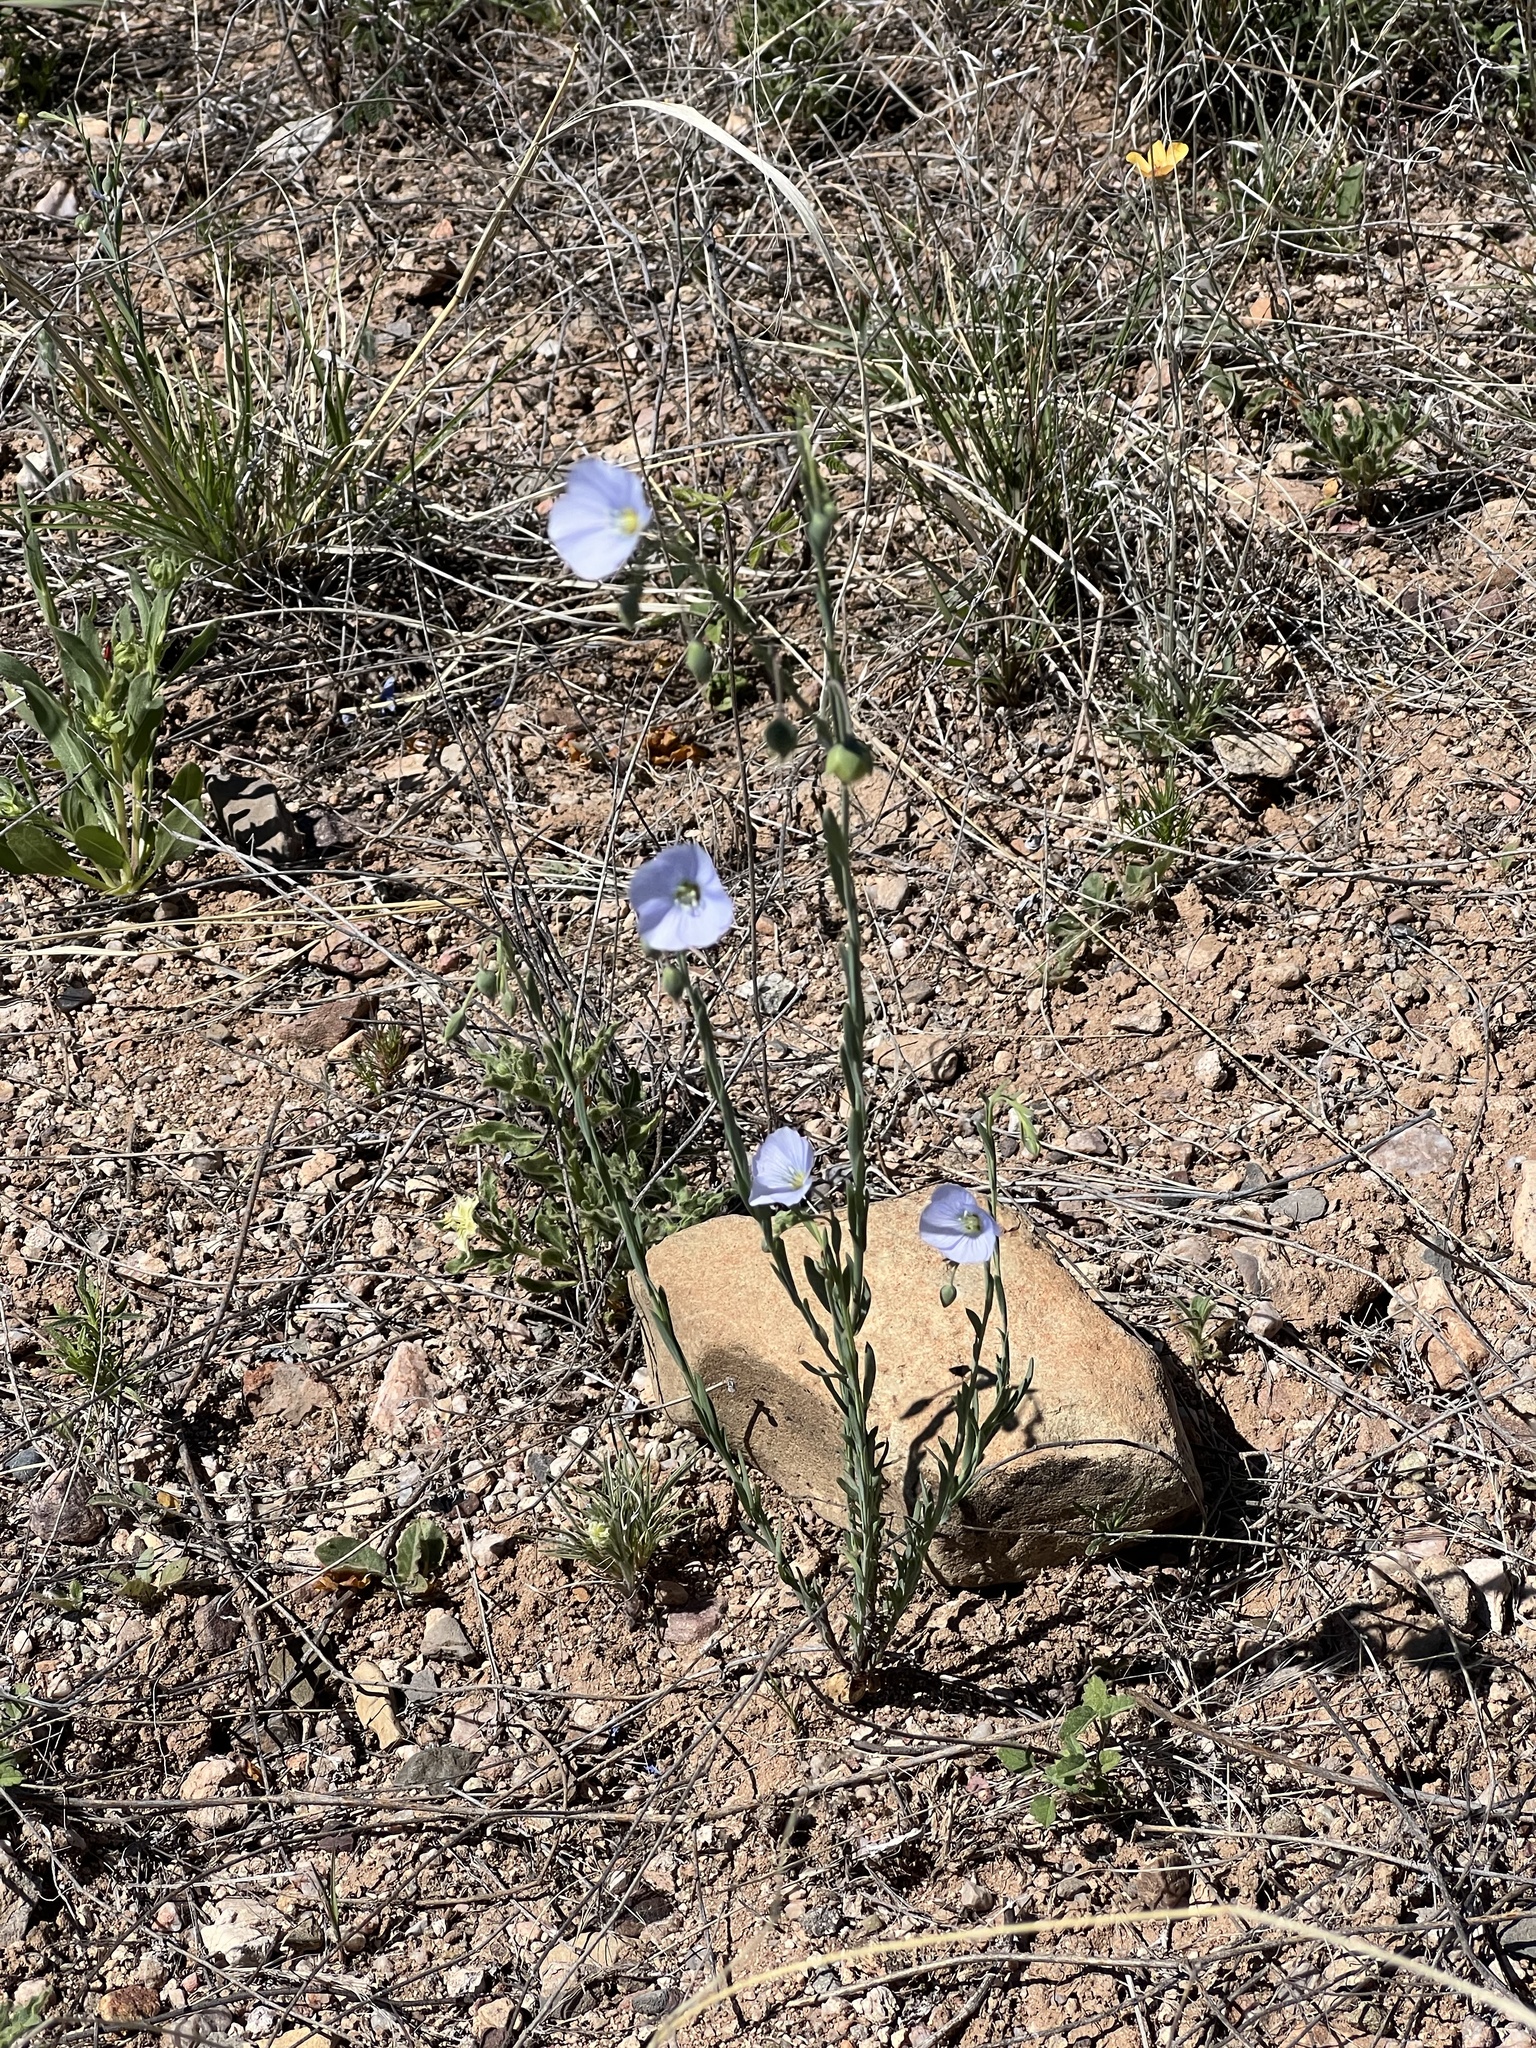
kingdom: Plantae
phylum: Tracheophyta
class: Magnoliopsida
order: Malpighiales
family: Linaceae
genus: Linum
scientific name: Linum lewisii
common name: Prairie flax
